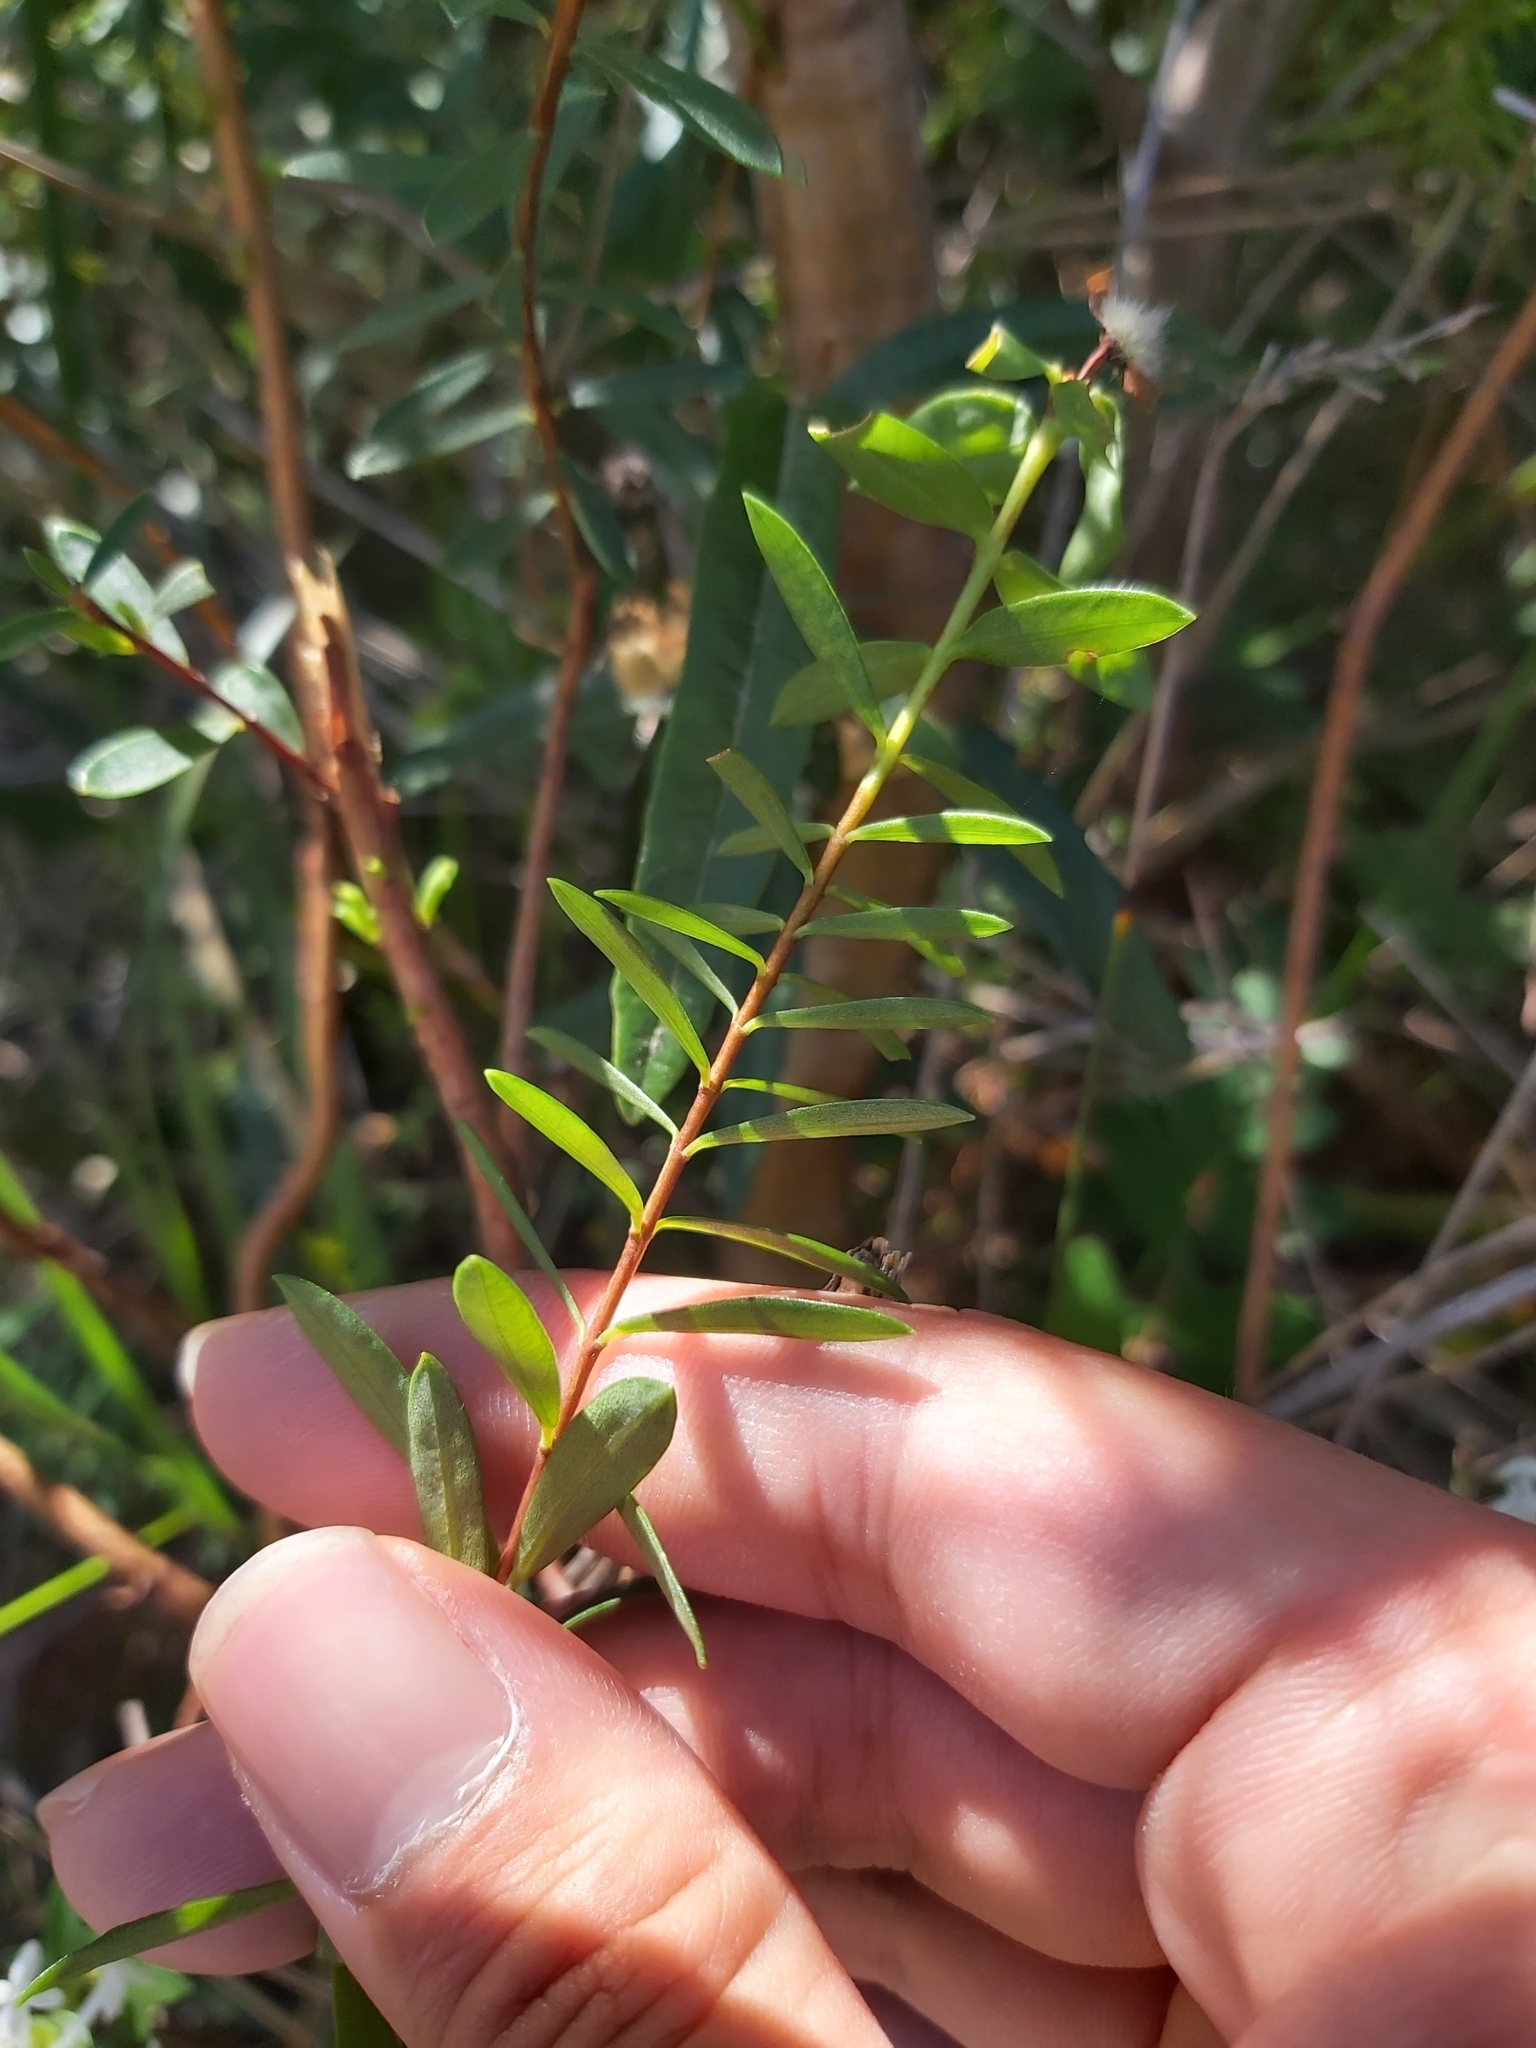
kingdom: Plantae
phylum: Tracheophyta
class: Magnoliopsida
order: Malvales
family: Thymelaeaceae
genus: Pimelea
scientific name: Pimelea linifolia
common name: Queen-of-the-bush
